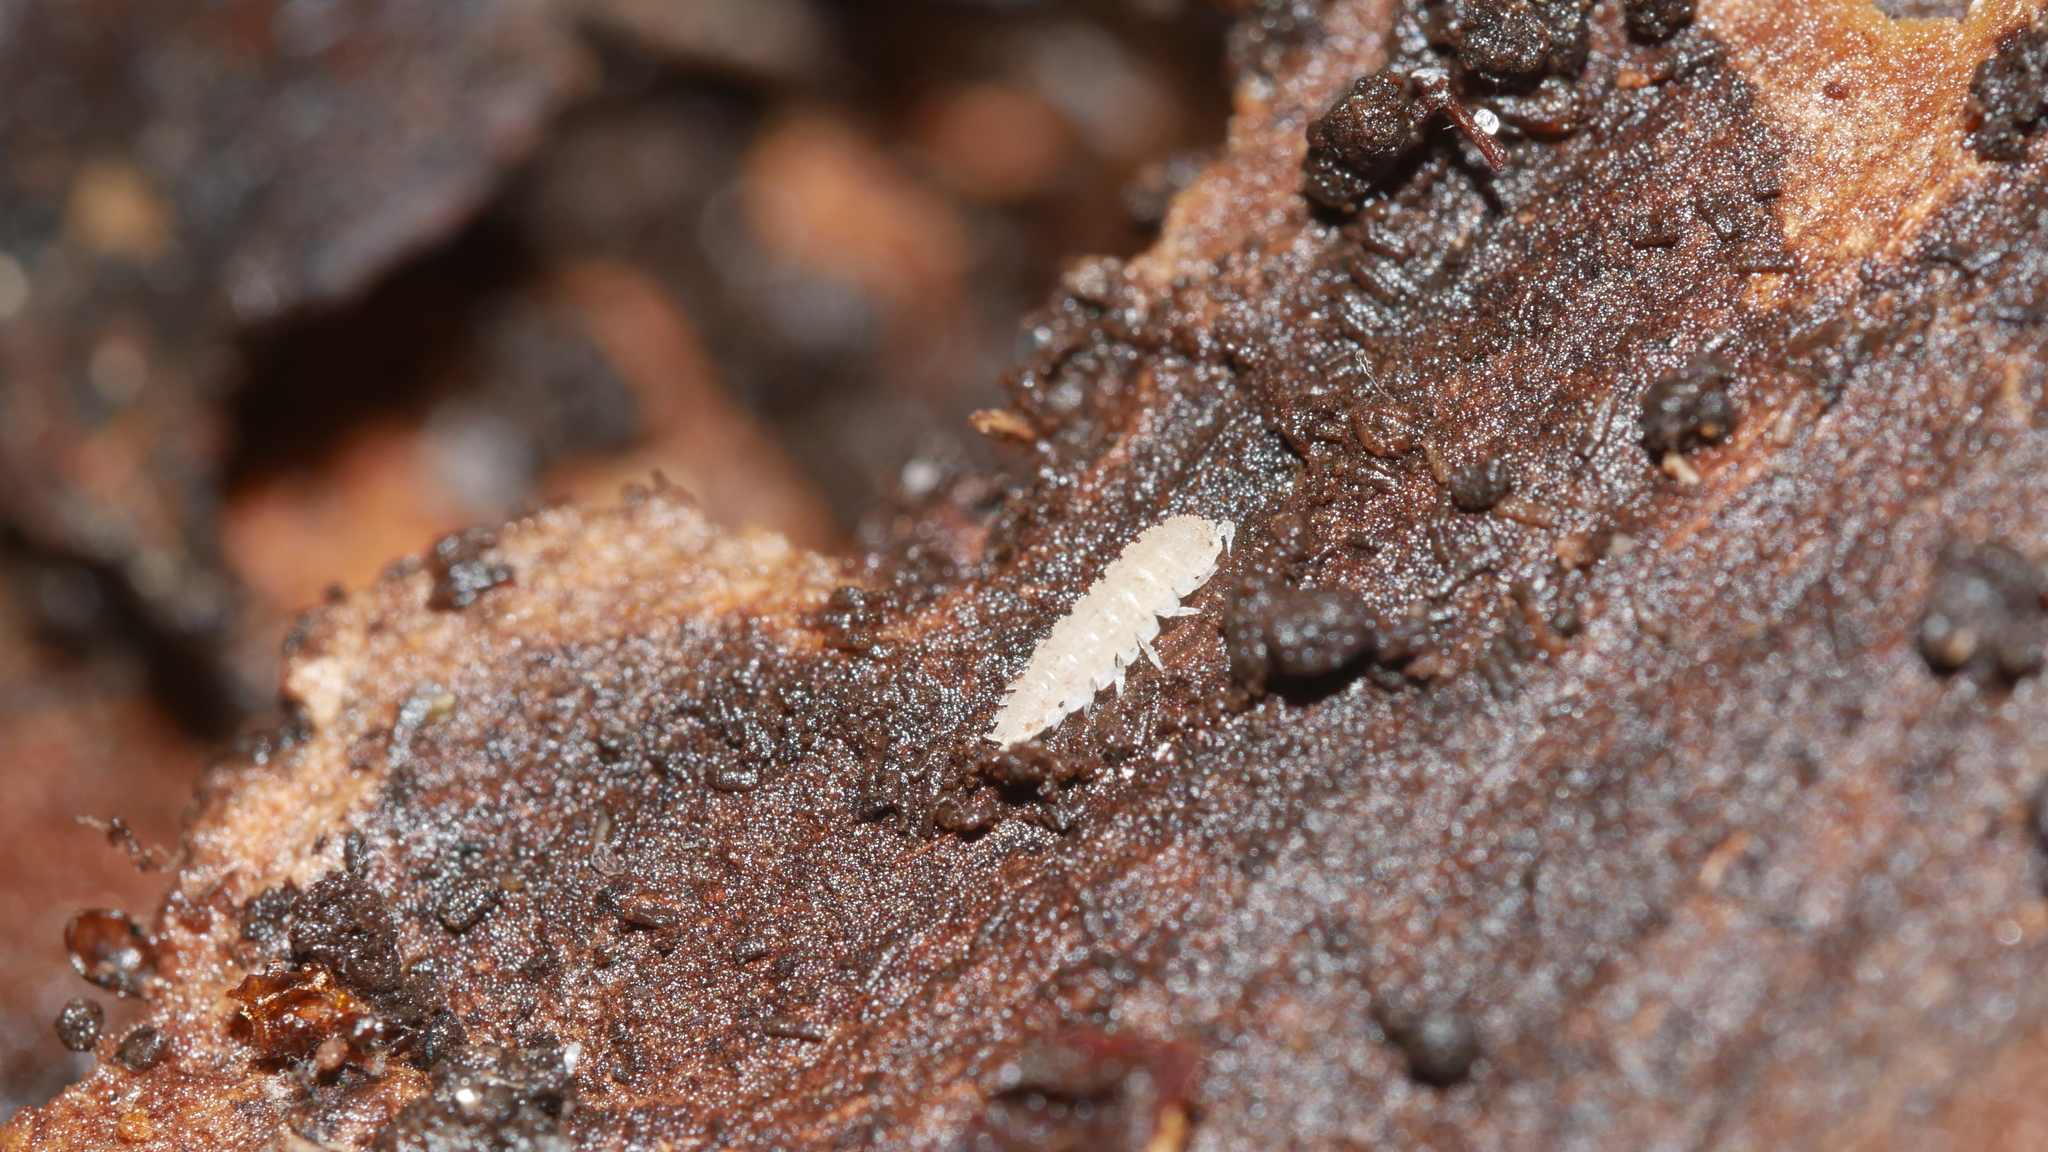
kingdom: Animalia
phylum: Arthropoda
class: Malacostraca
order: Isopoda
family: Trichoniscidae
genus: Haplophthalmus
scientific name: Haplophthalmus danicus
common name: Pillbug
